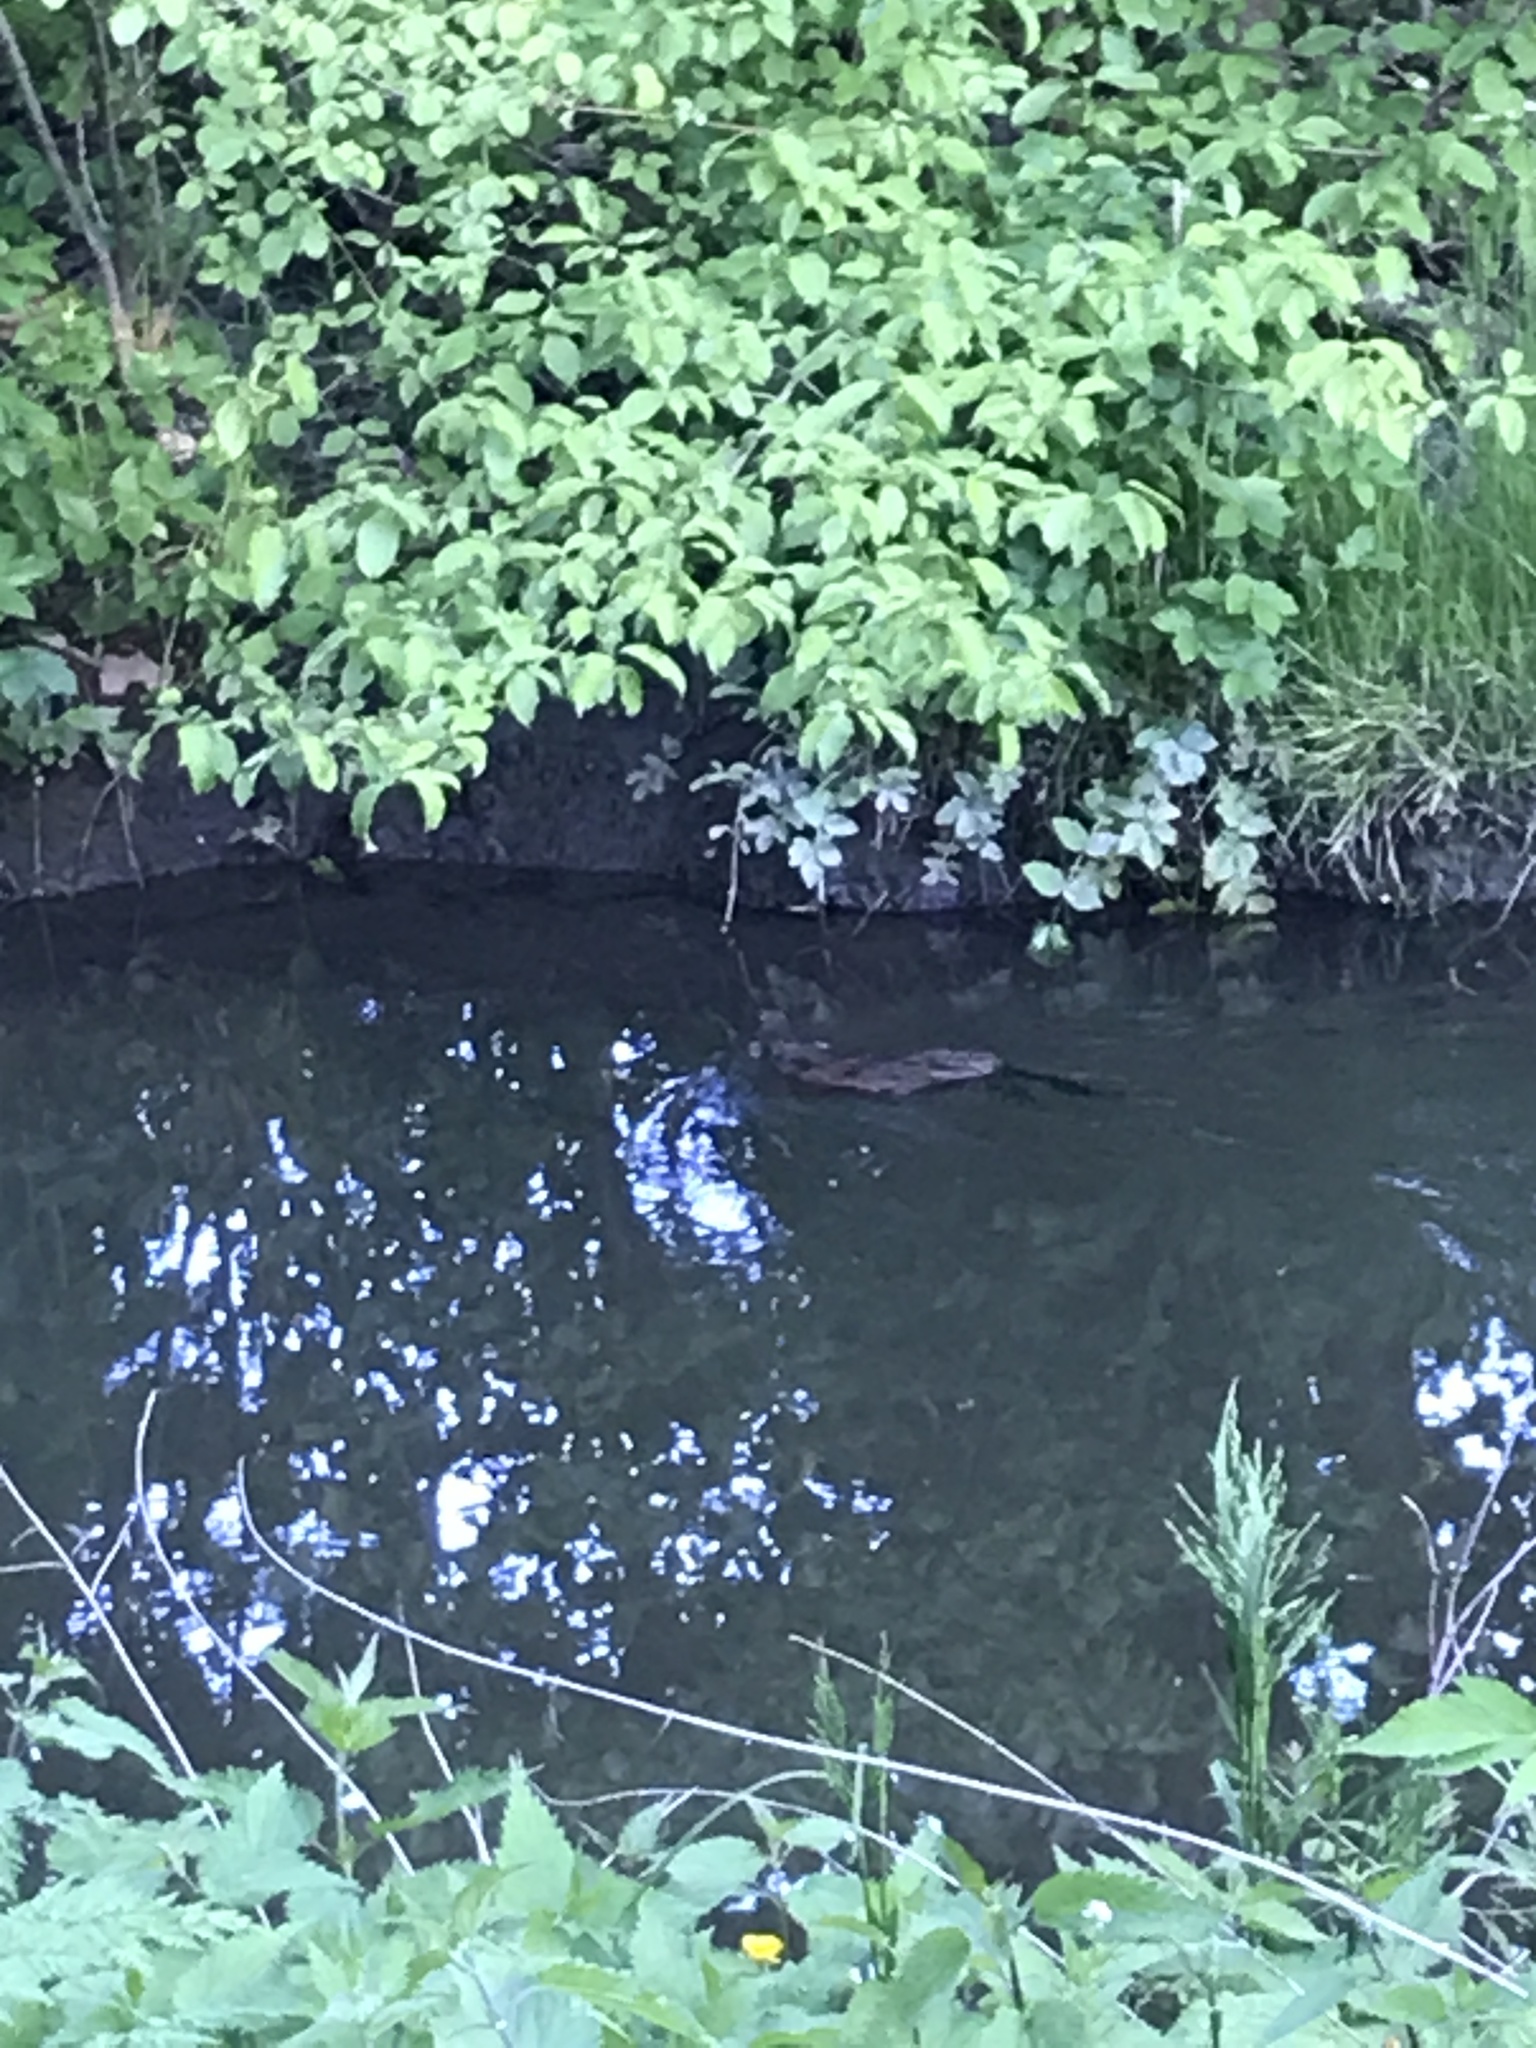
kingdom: Animalia
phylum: Chordata
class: Mammalia
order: Rodentia
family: Cricetidae
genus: Ondatra
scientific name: Ondatra zibethicus
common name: Muskrat
